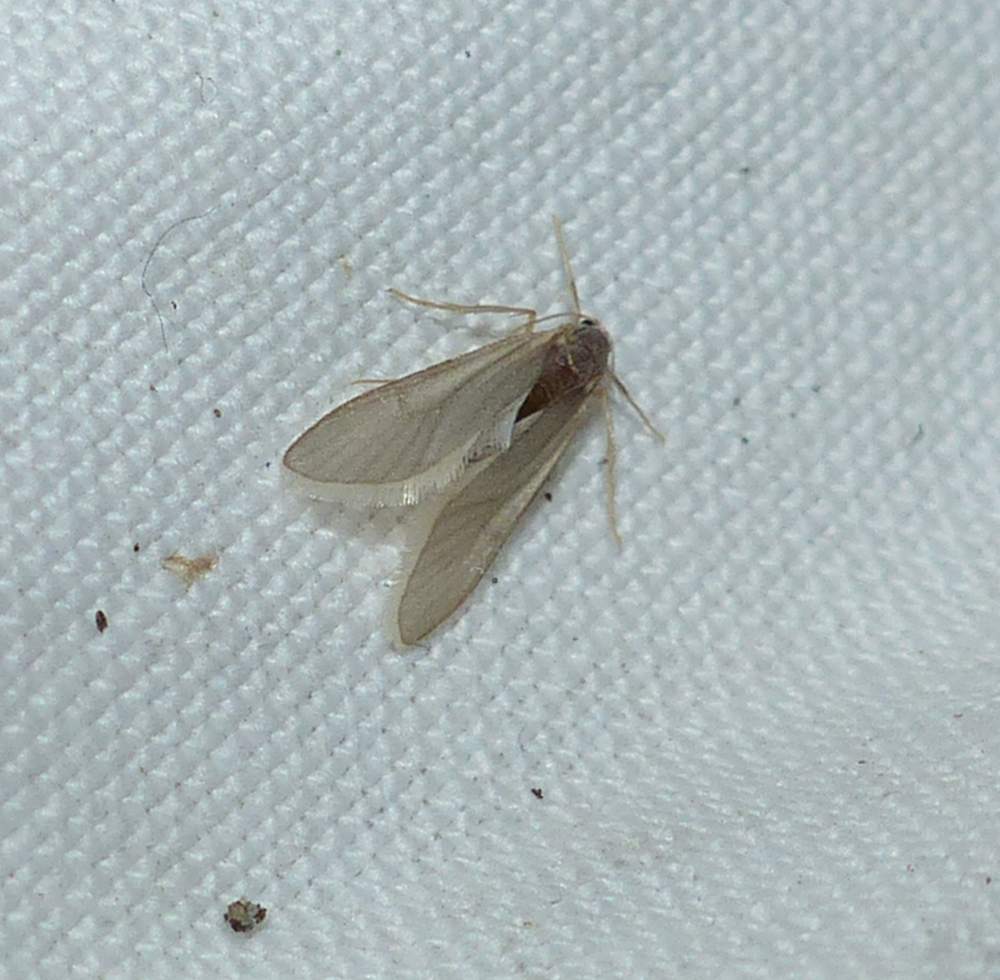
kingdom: Animalia
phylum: Arthropoda
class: Insecta
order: Lepidoptera
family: Crambidae
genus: Acentria
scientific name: Acentria ephemerella
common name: European water moth
